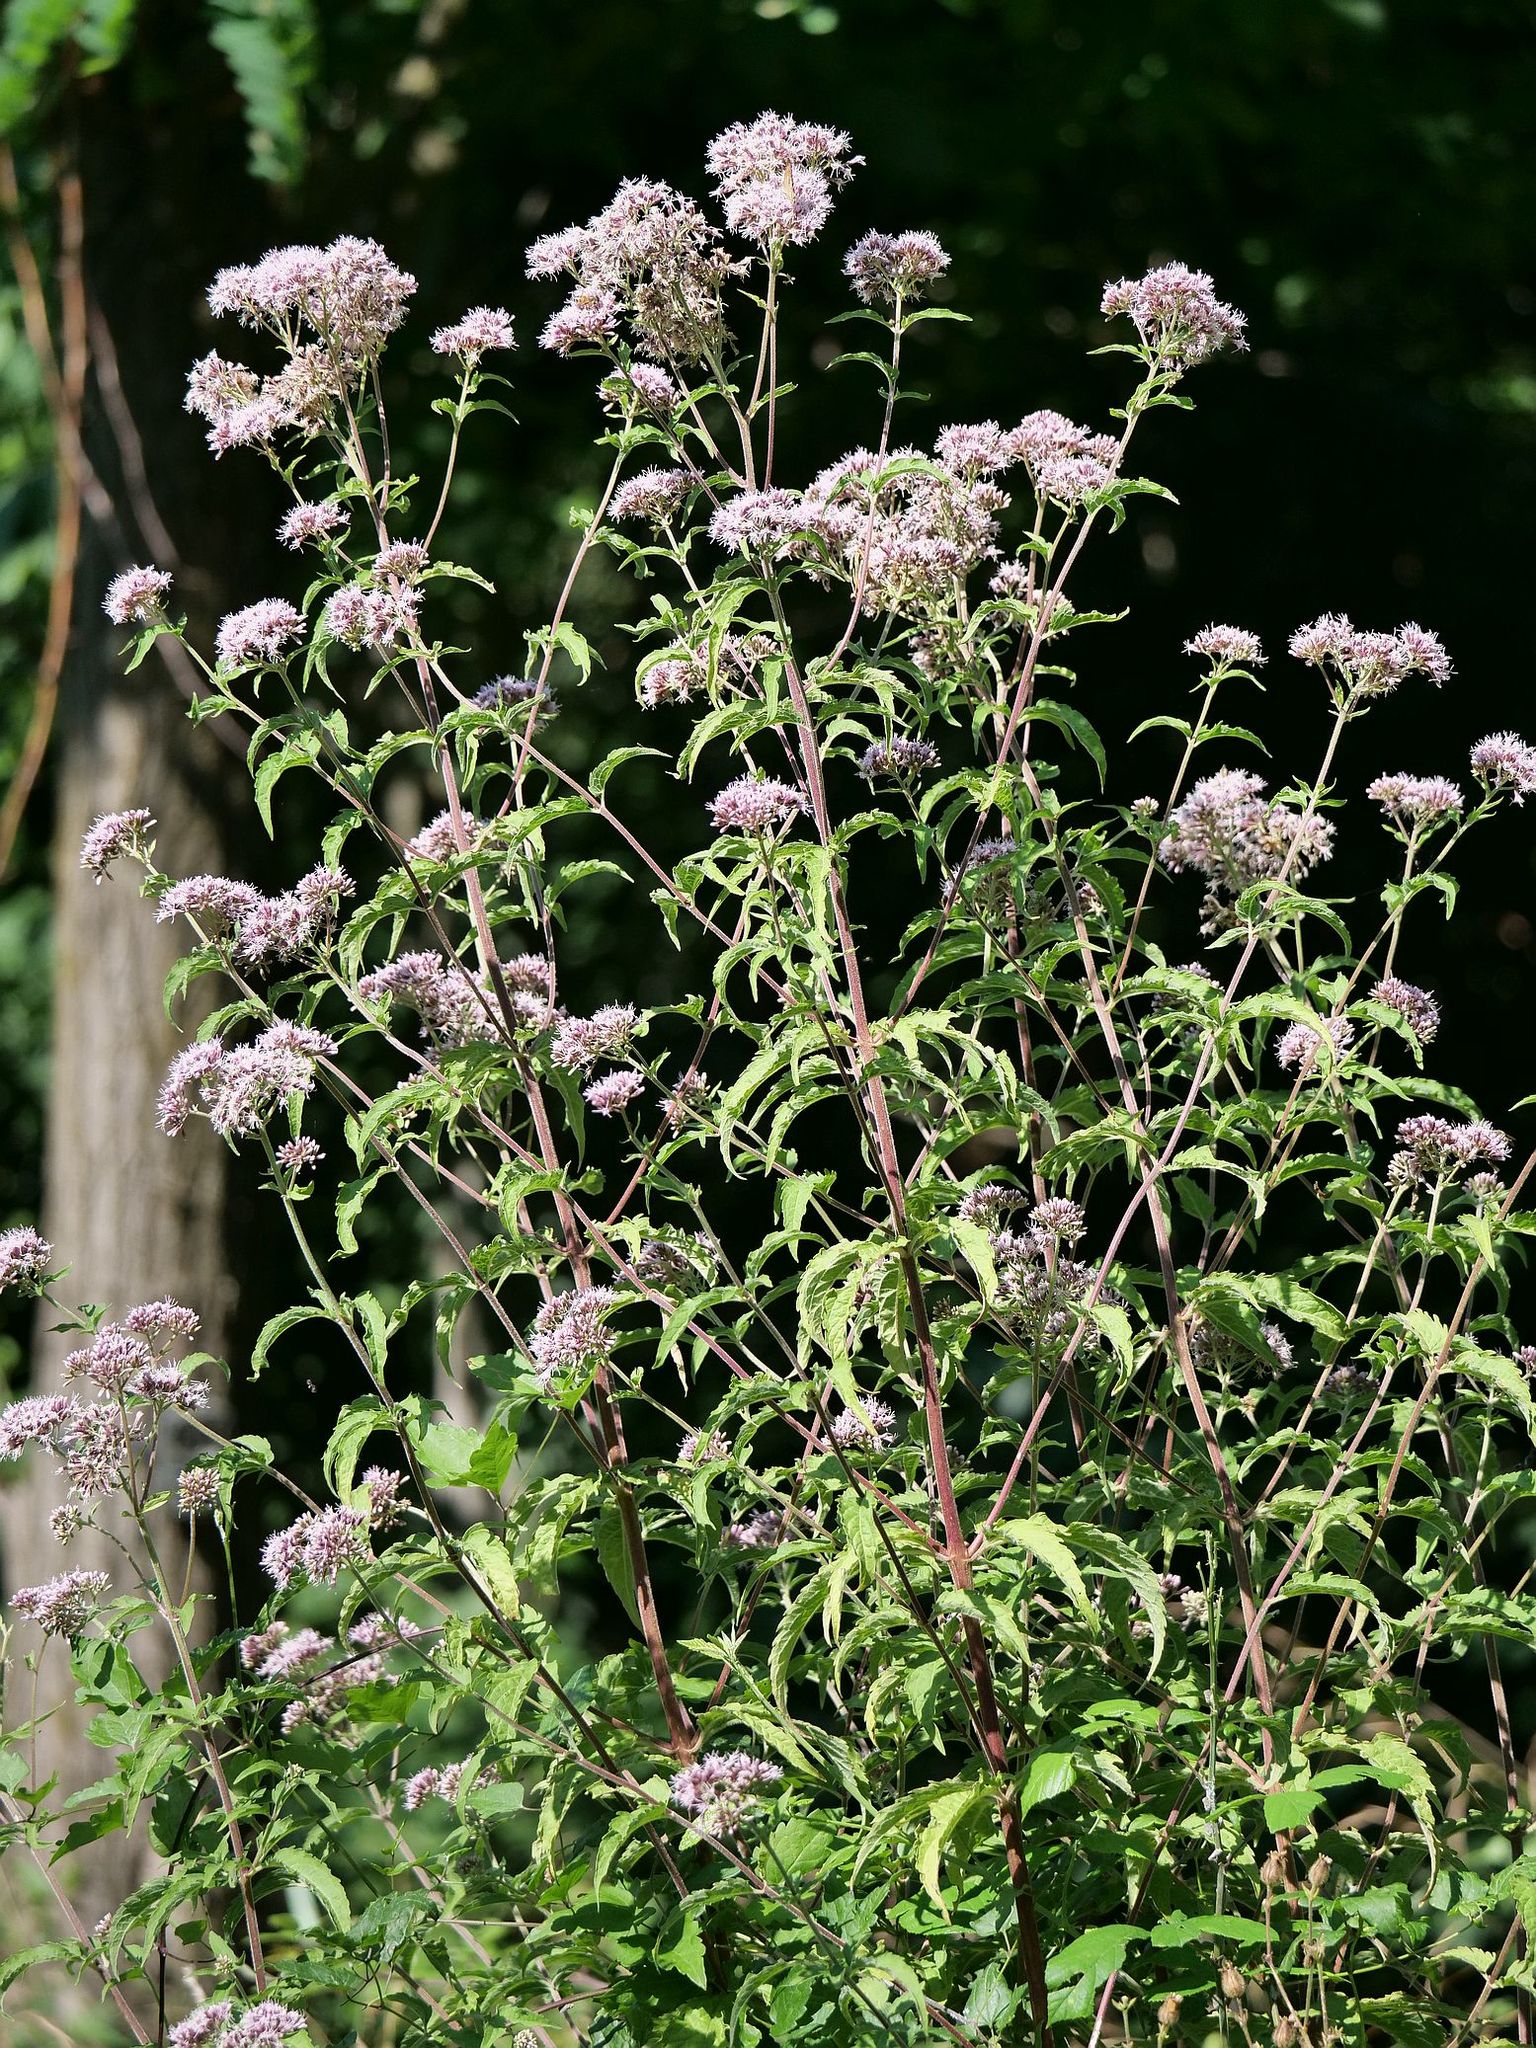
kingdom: Plantae
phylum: Tracheophyta
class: Magnoliopsida
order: Asterales
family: Asteraceae
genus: Eupatorium
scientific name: Eupatorium cannabinum
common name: Hemp-agrimony
